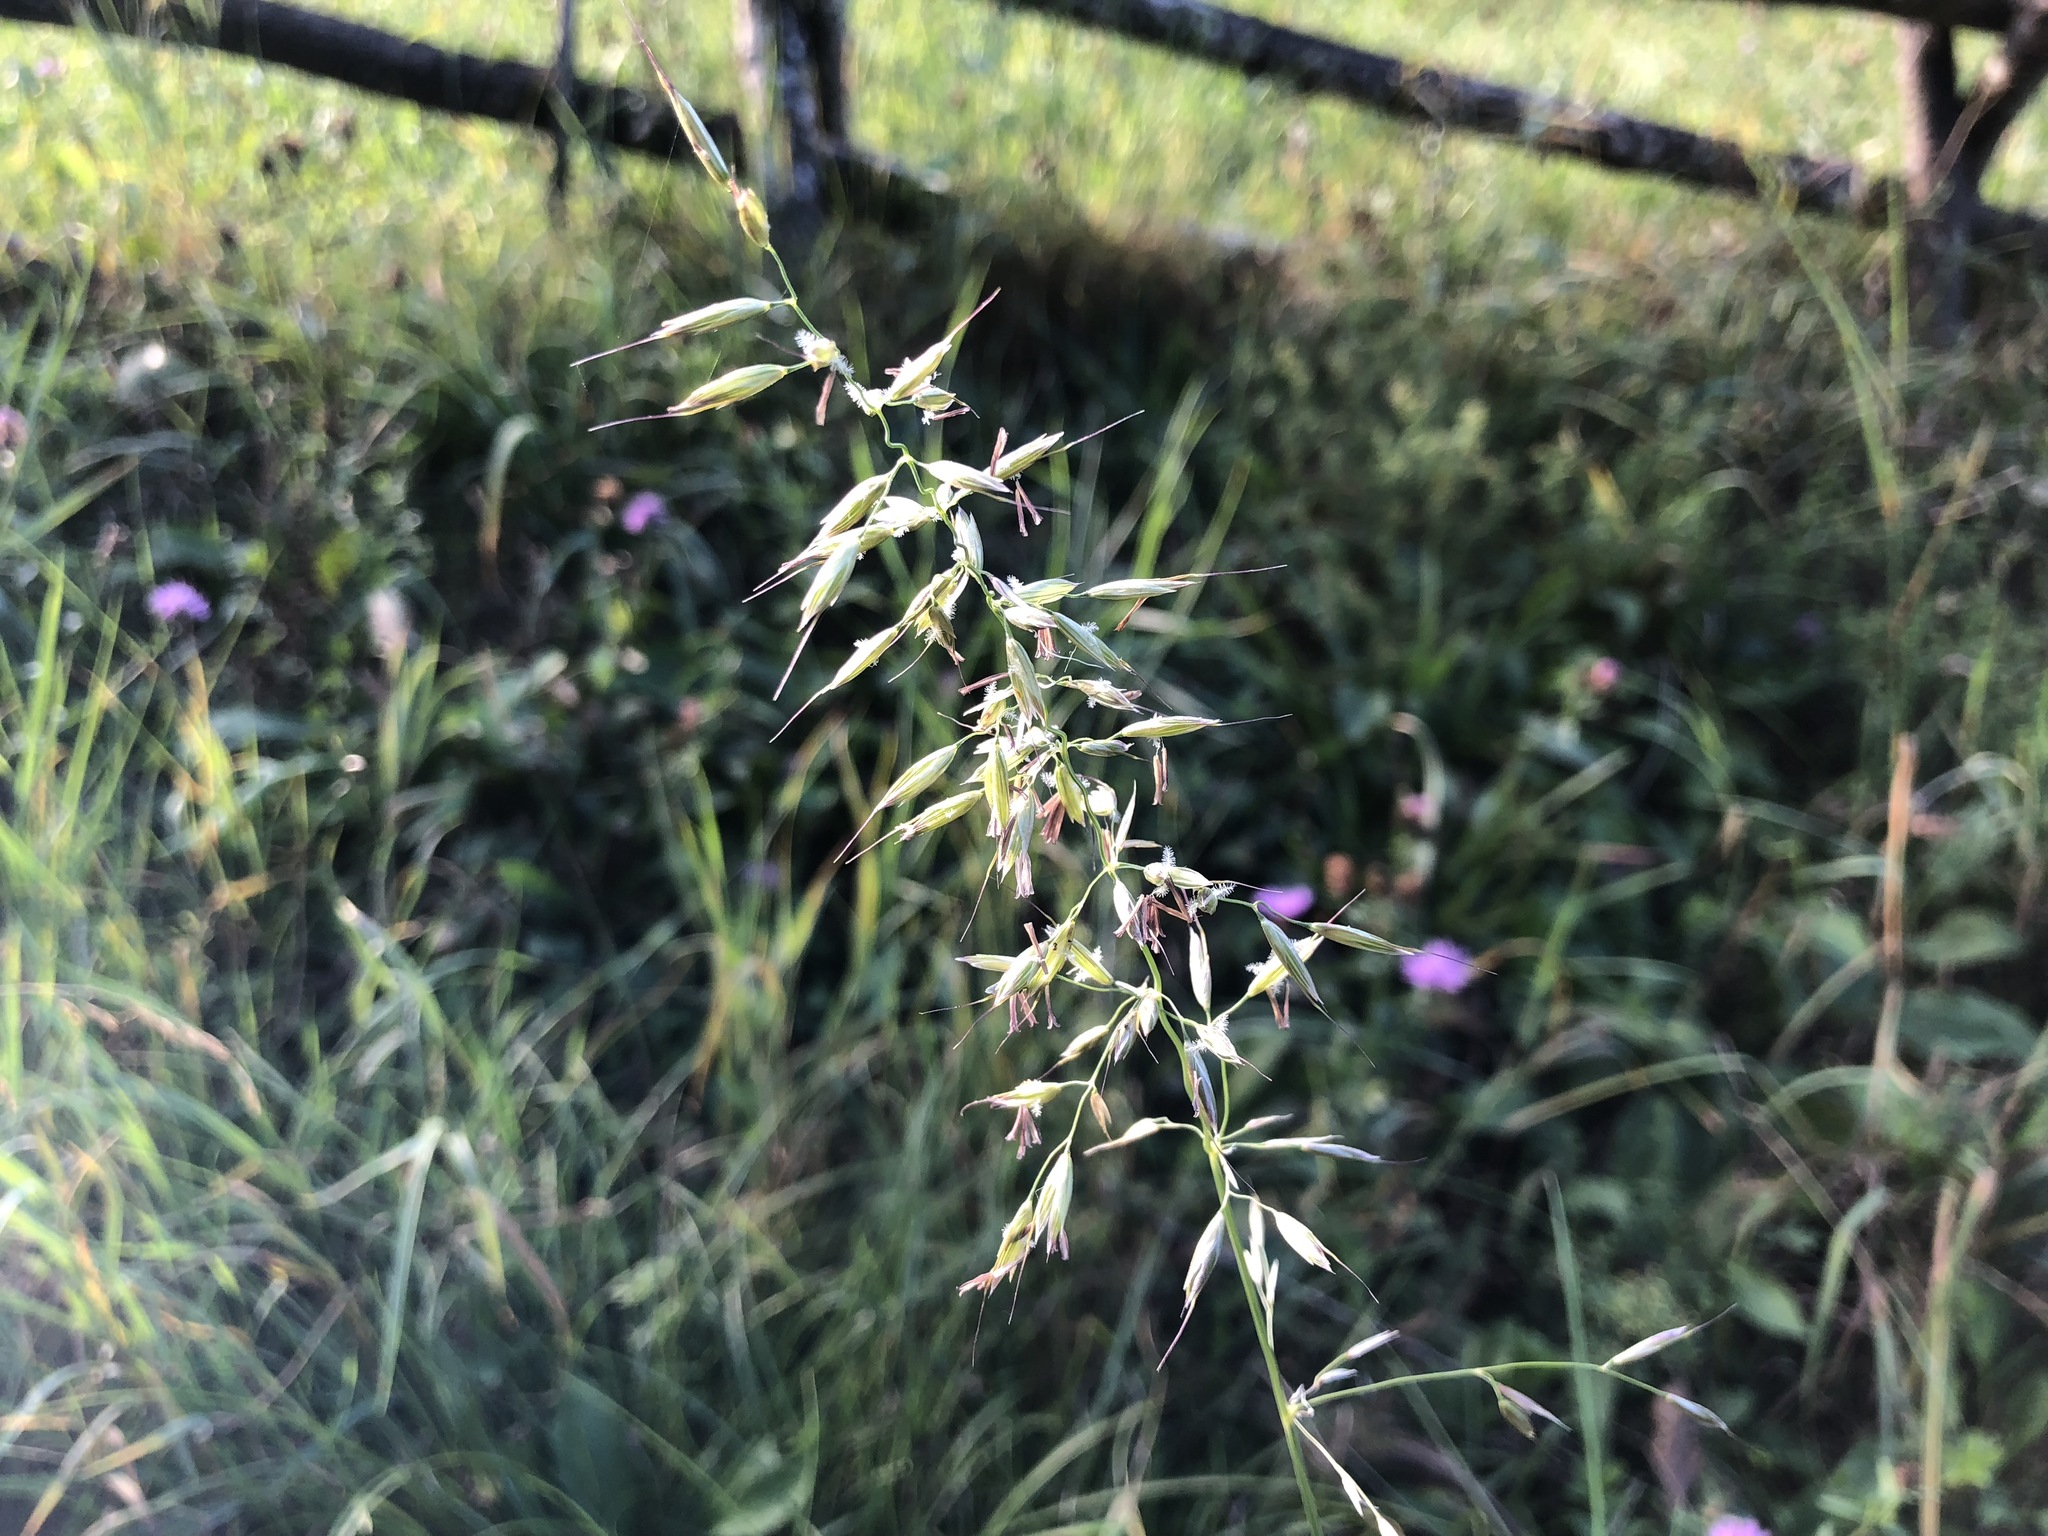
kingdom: Plantae
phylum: Tracheophyta
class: Liliopsida
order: Poales
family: Poaceae
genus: Avenula
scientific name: Avenula pubescens
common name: Downy alpine oatgrass
